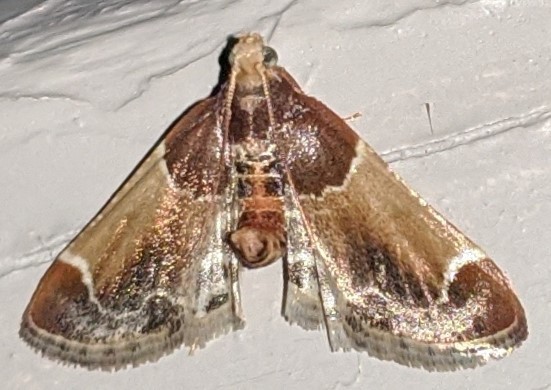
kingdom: Animalia
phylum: Arthropoda
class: Insecta
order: Lepidoptera
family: Pyralidae
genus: Pyralis
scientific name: Pyralis farinalis
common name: Meal moth
